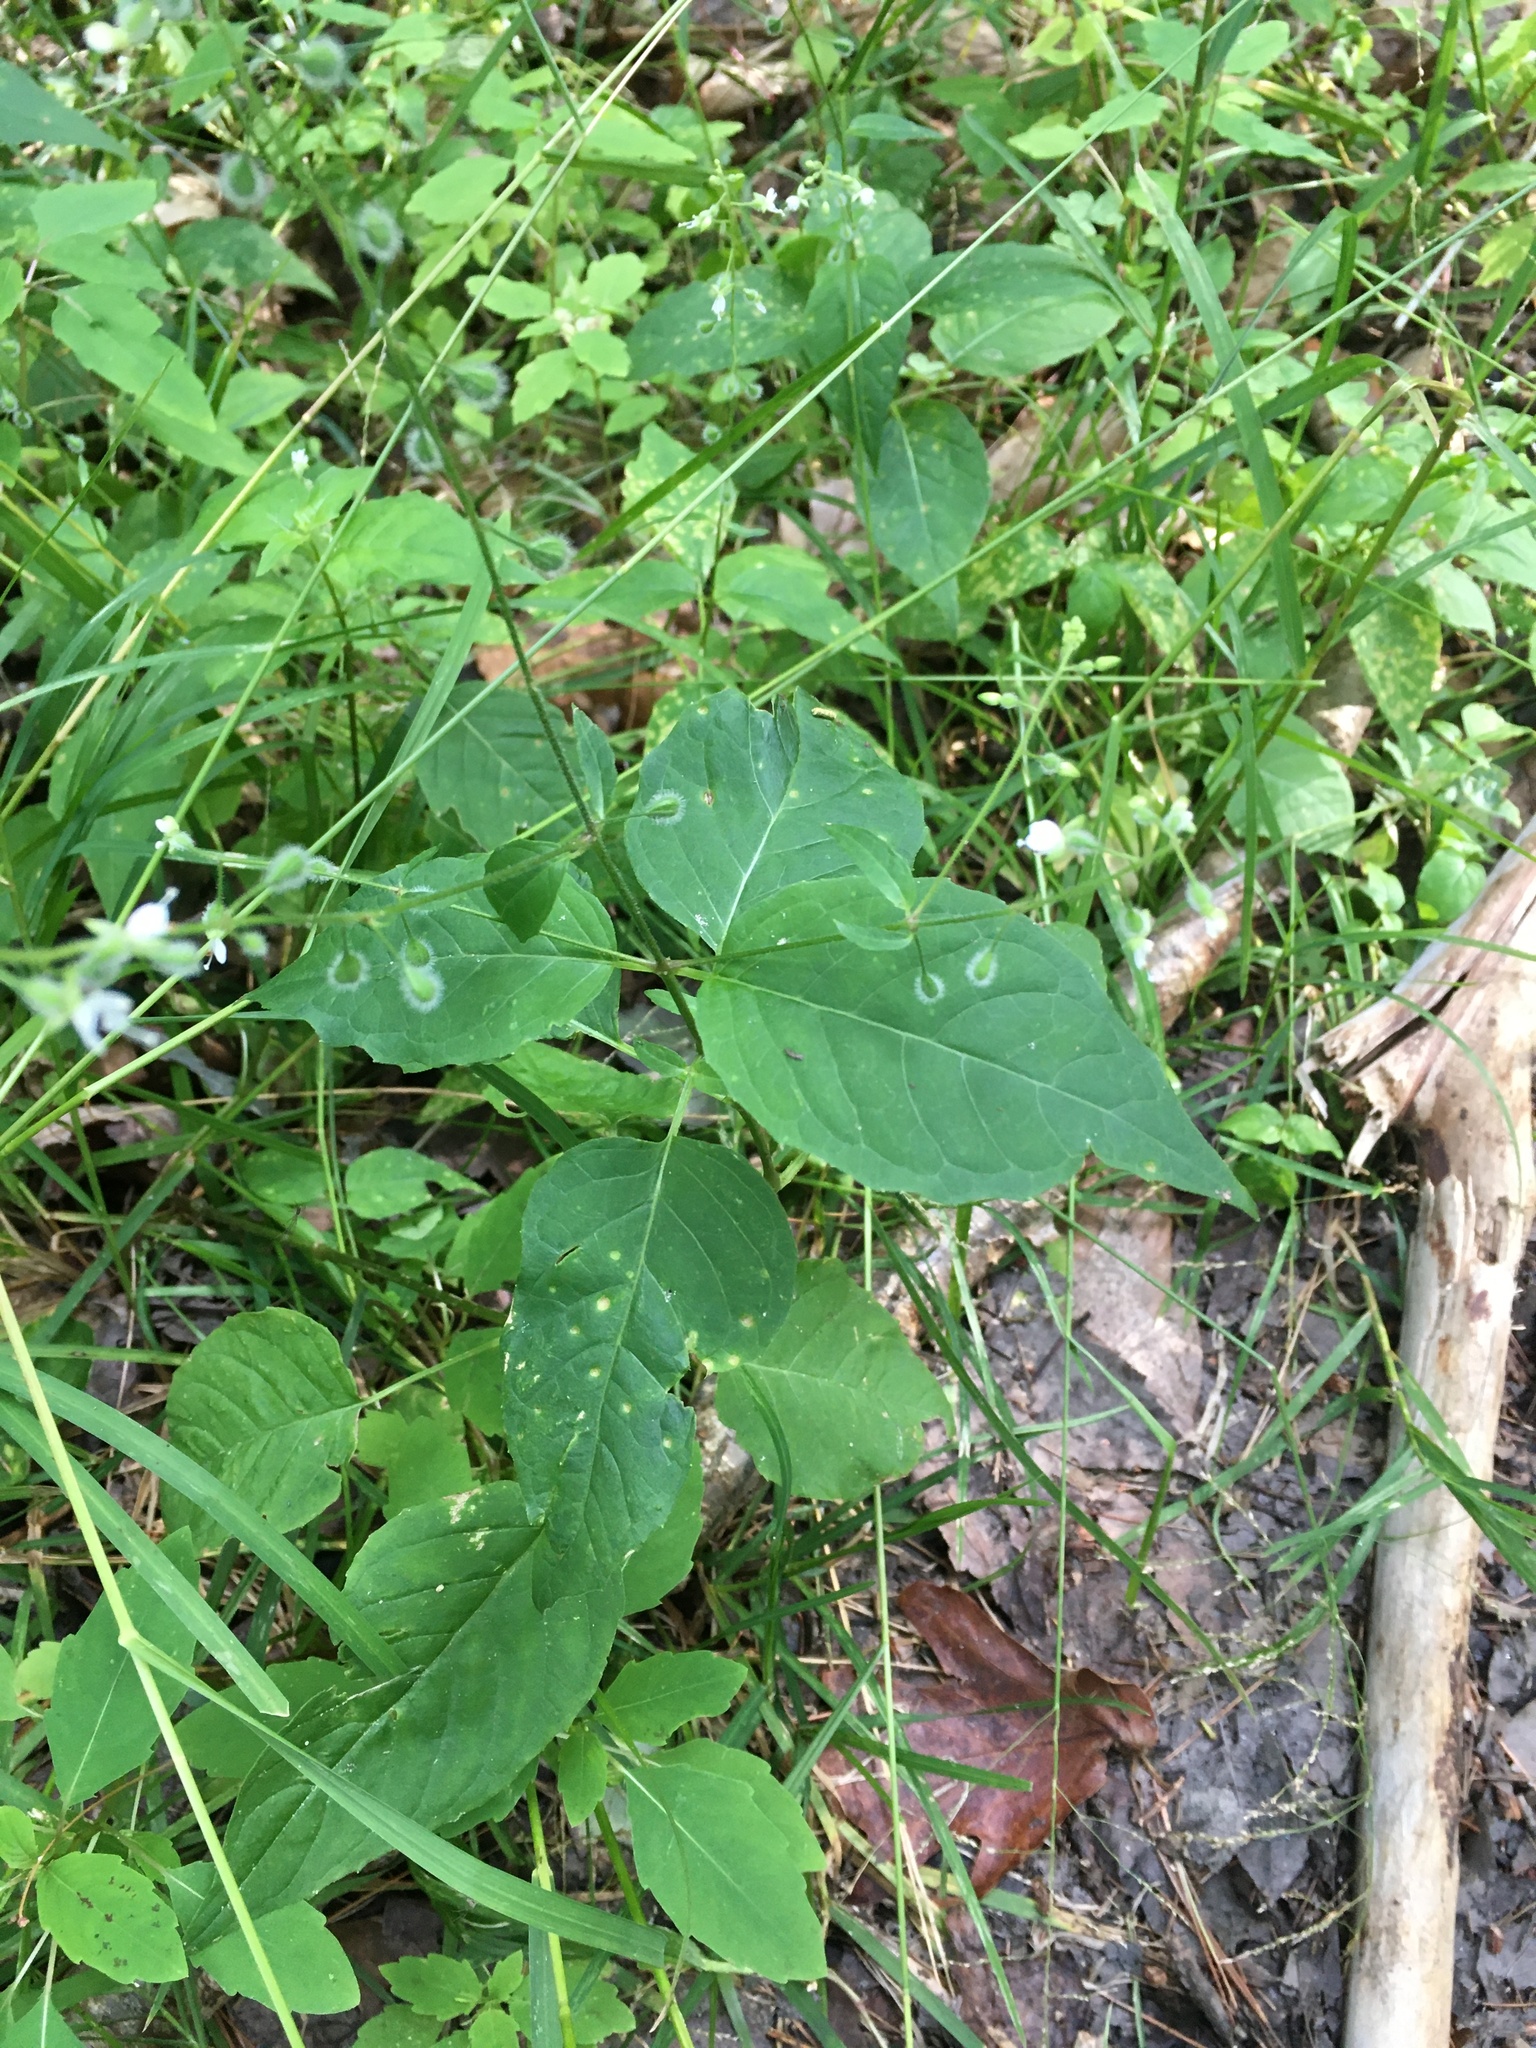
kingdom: Plantae
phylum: Tracheophyta
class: Magnoliopsida
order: Myrtales
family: Onagraceae
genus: Circaea
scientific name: Circaea canadensis
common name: Broad-leaved enchanter's nightshade
